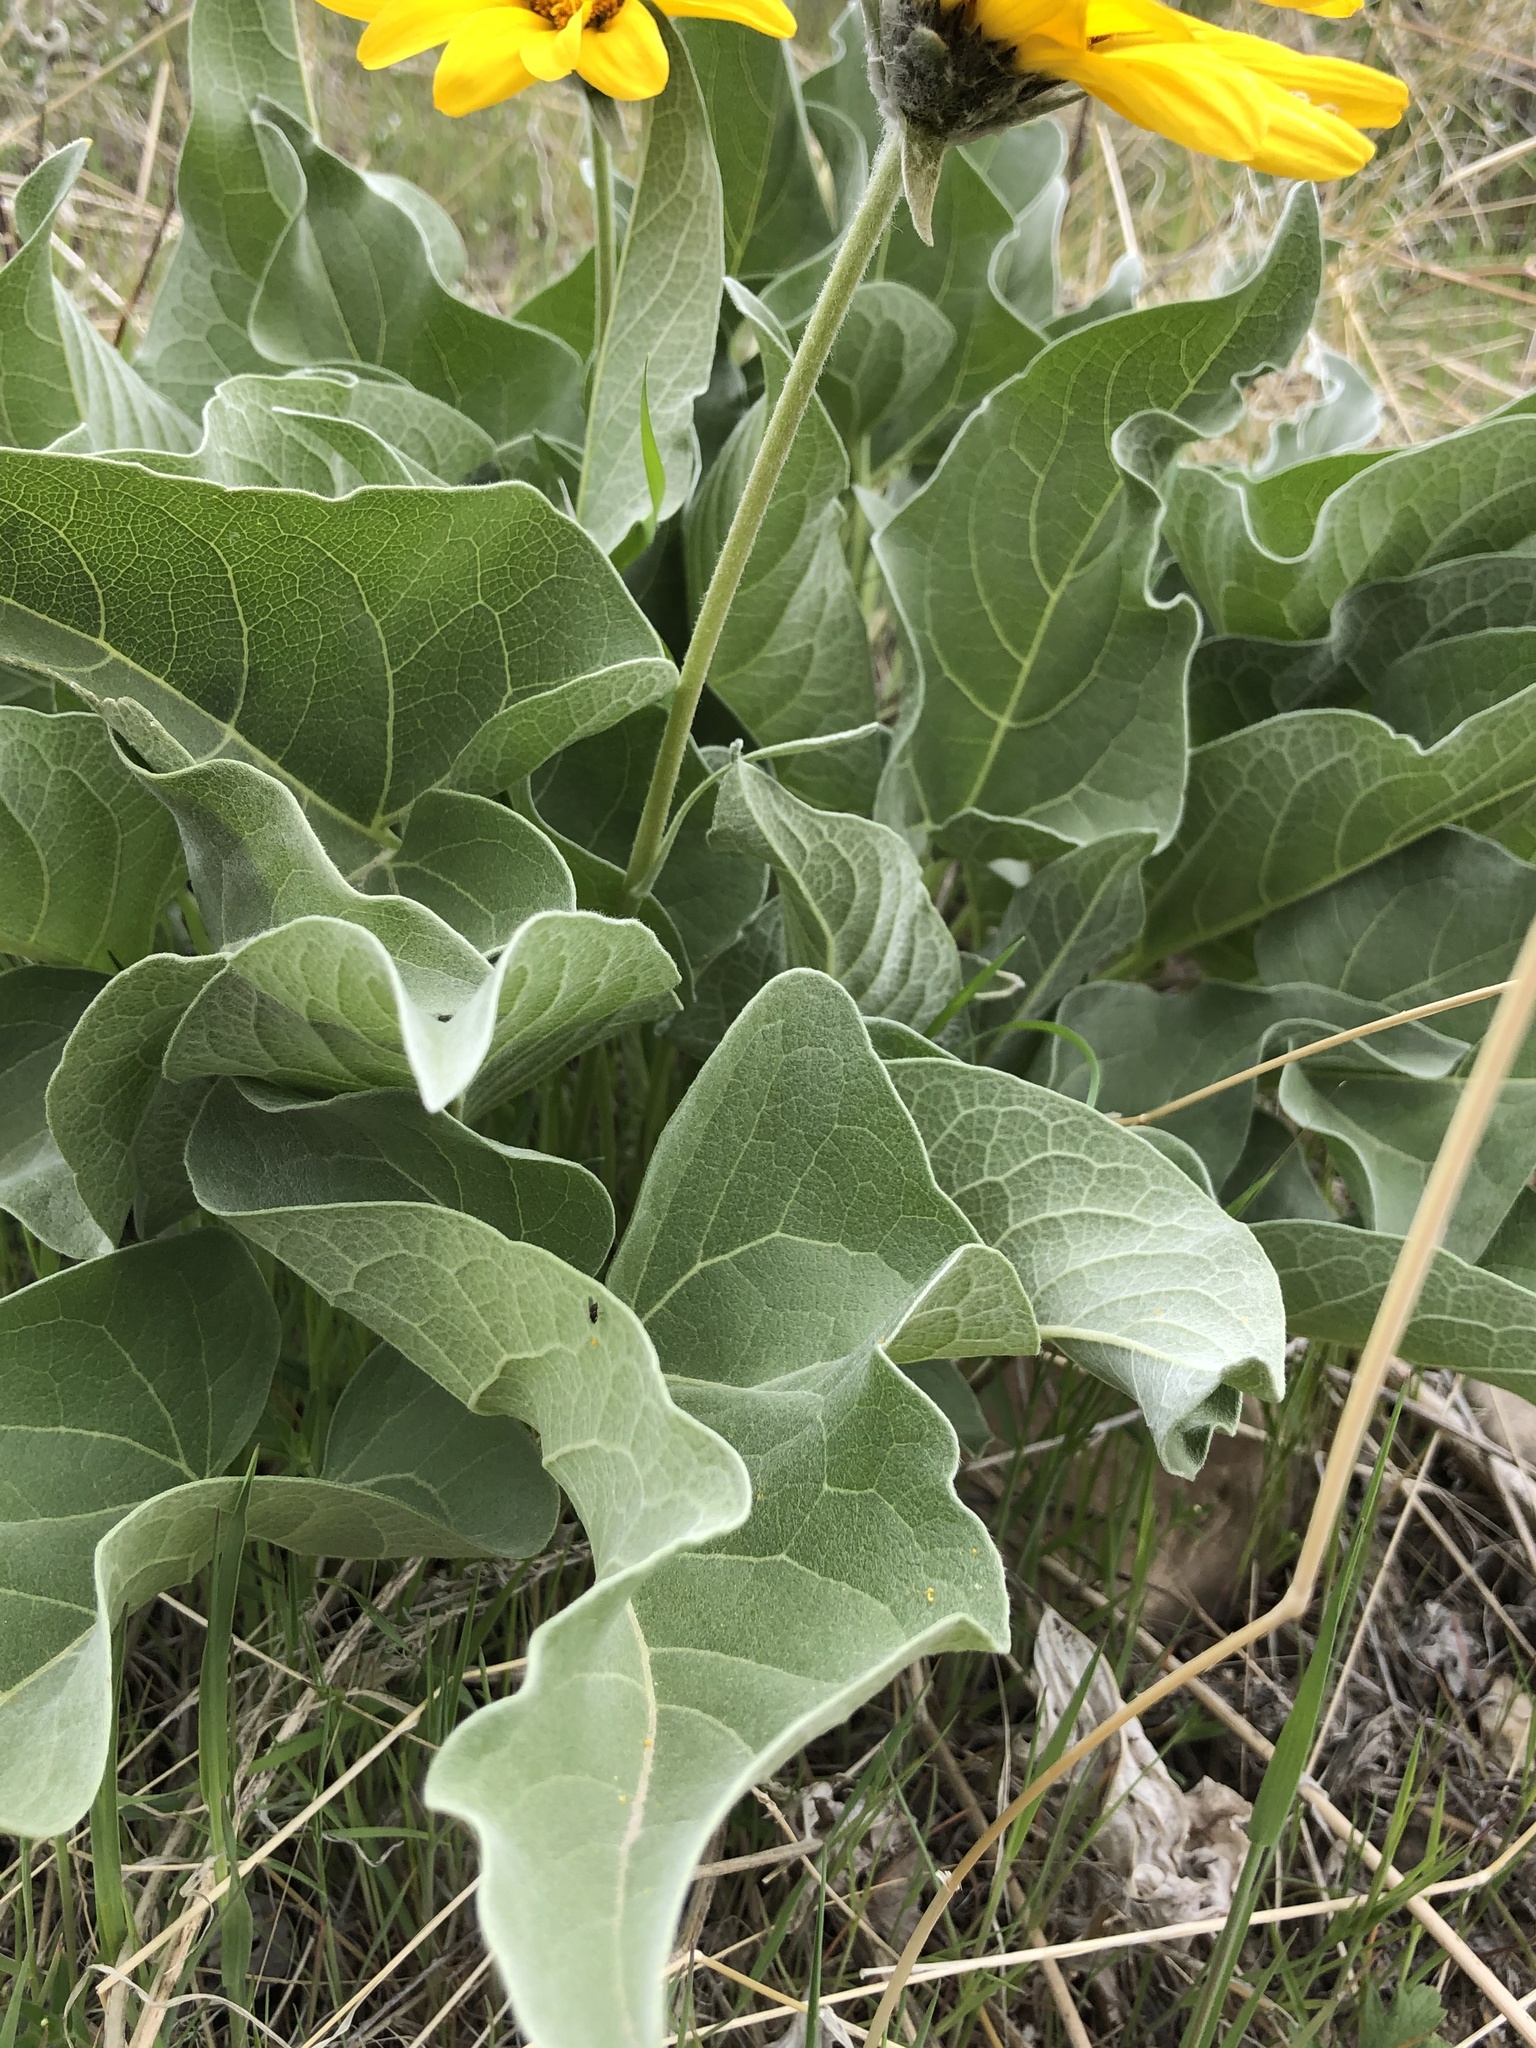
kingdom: Plantae
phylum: Tracheophyta
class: Magnoliopsida
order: Asterales
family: Asteraceae
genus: Wyethia
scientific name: Wyethia sagittata
